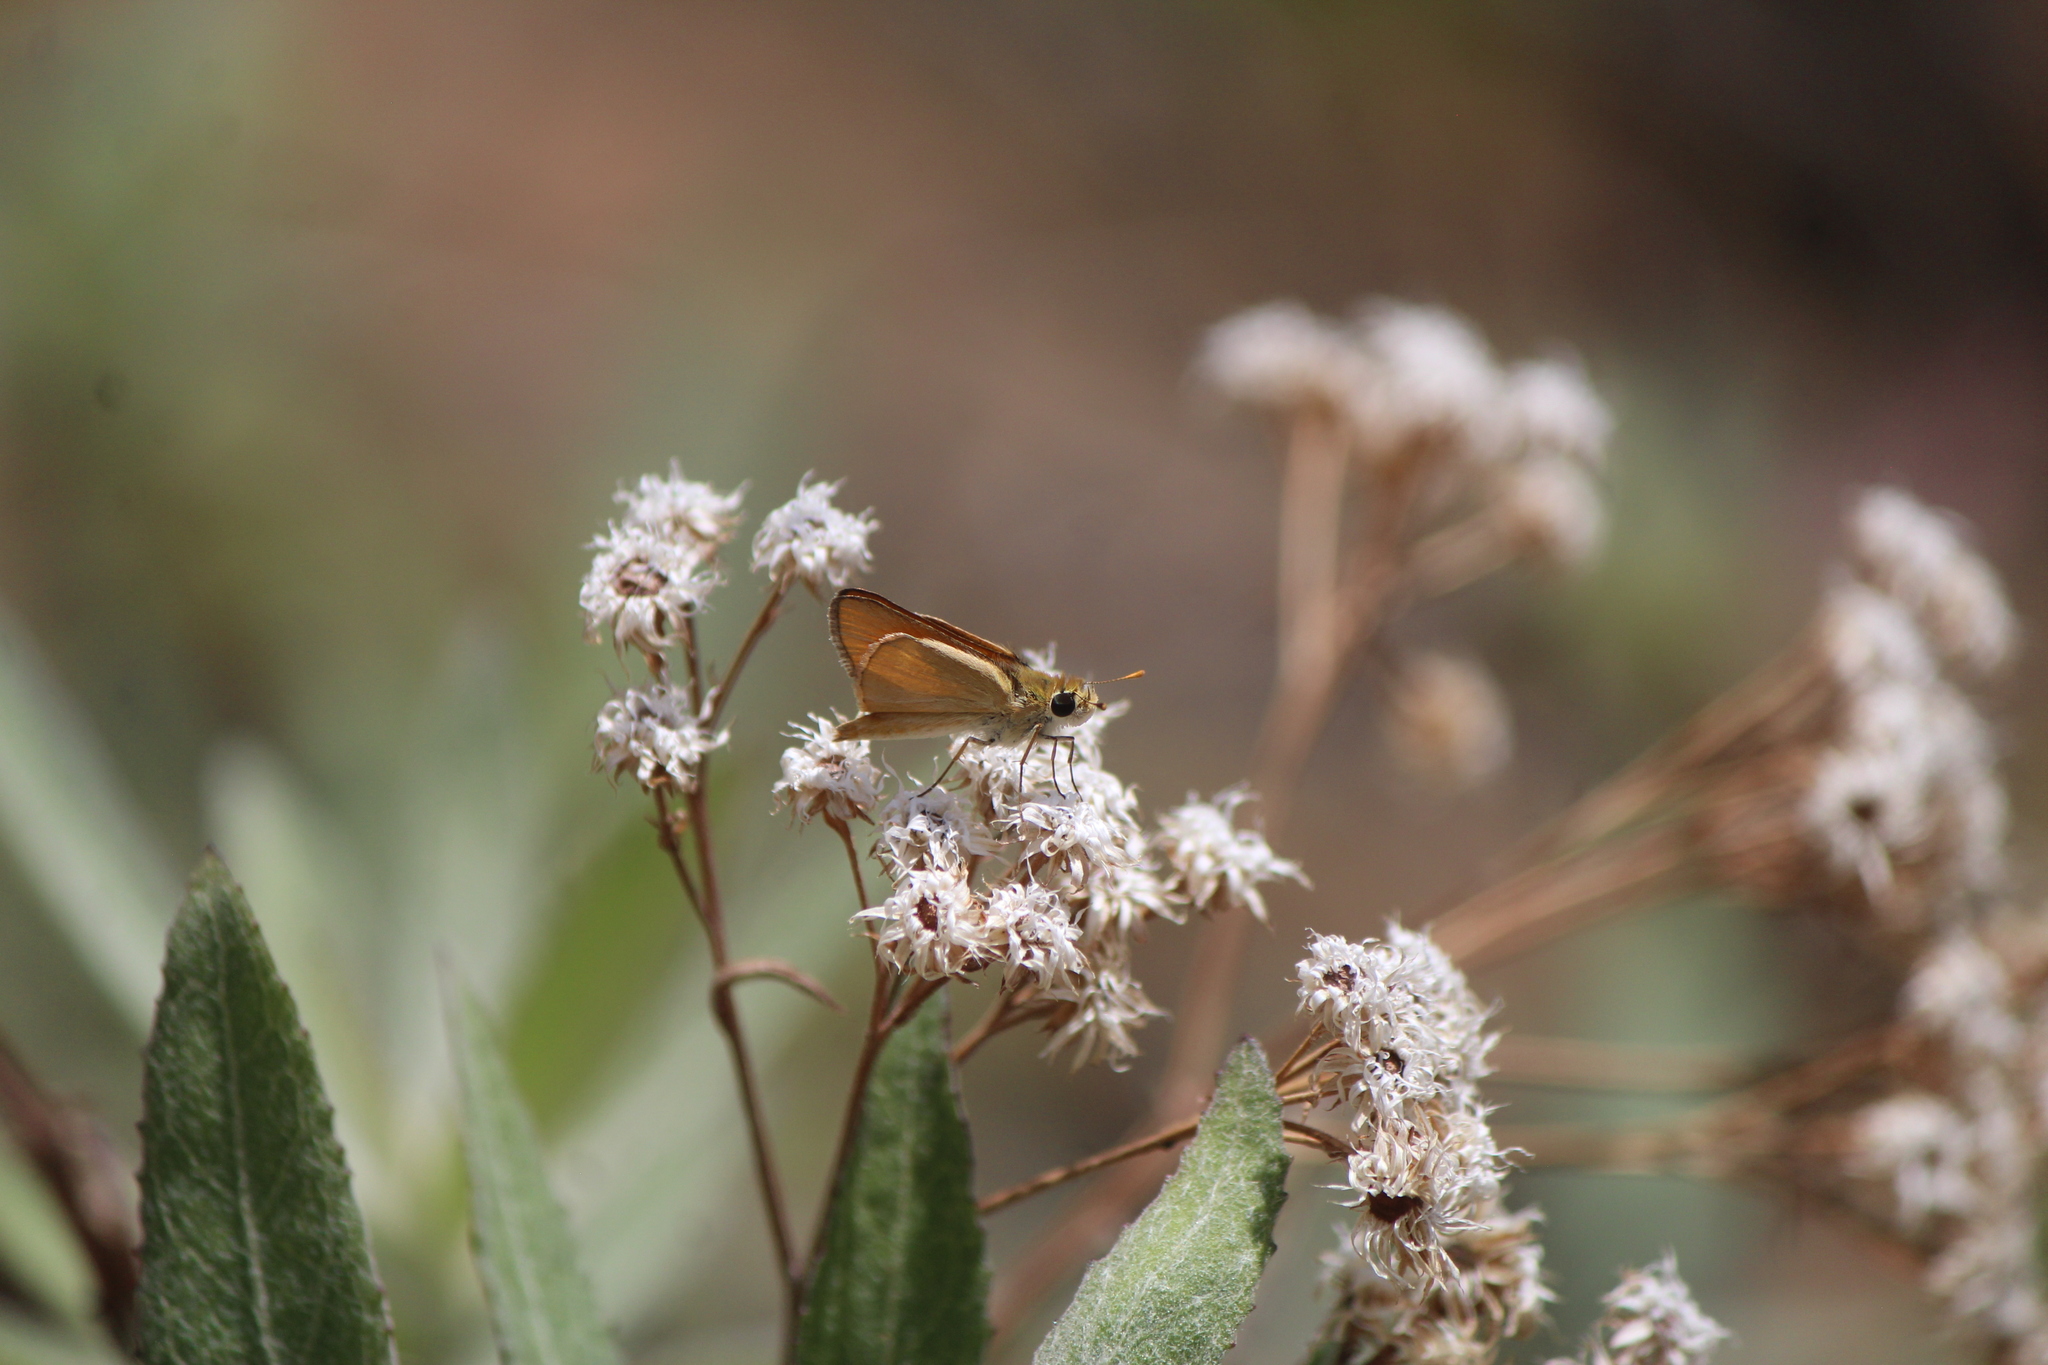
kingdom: Animalia
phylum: Arthropoda
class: Insecta
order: Lepidoptera
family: Hesperiidae
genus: Copaeodes
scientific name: Copaeodes aurantiaca
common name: Orange skipperling
